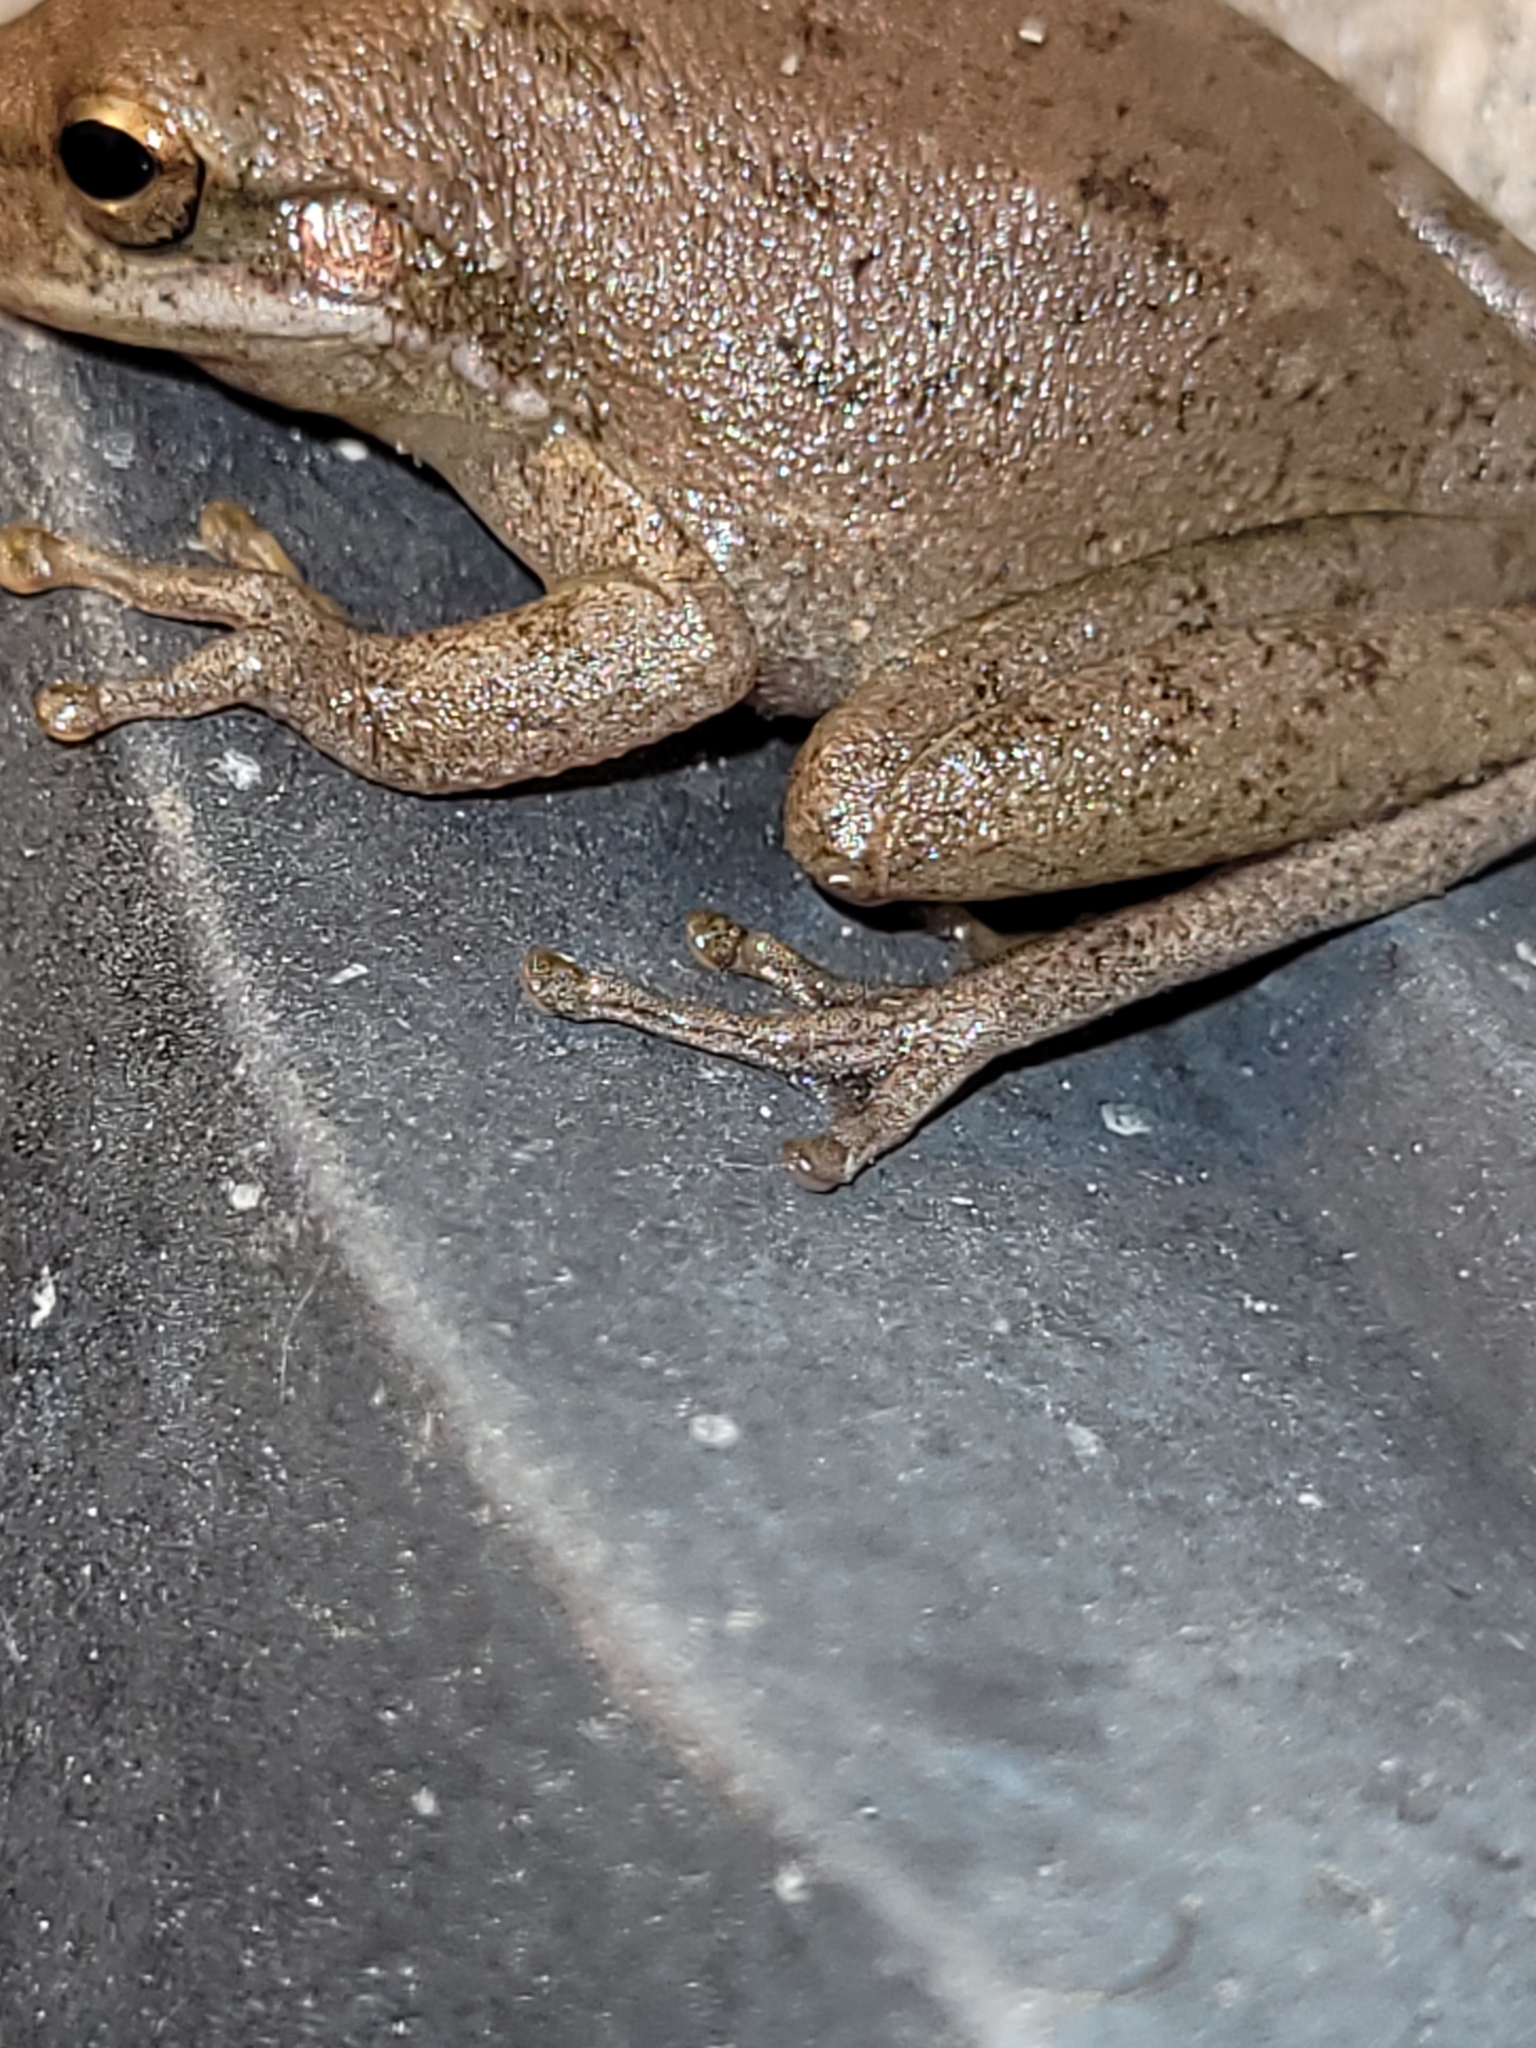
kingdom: Animalia
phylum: Chordata
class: Amphibia
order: Anura
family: Hylidae
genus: Dryophytes
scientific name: Dryophytes squirellus
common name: Squirrel treefrog
